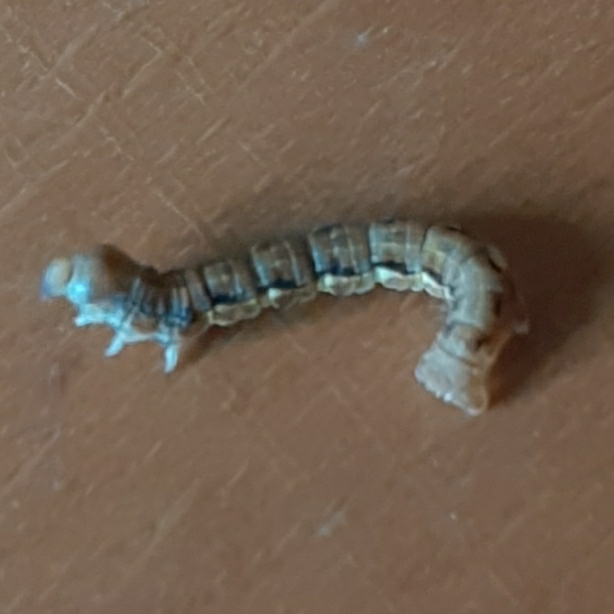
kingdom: Animalia
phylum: Arthropoda
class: Insecta
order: Lepidoptera
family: Geometridae
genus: Erannis
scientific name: Erannis defoliaria
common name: Mottled umber
